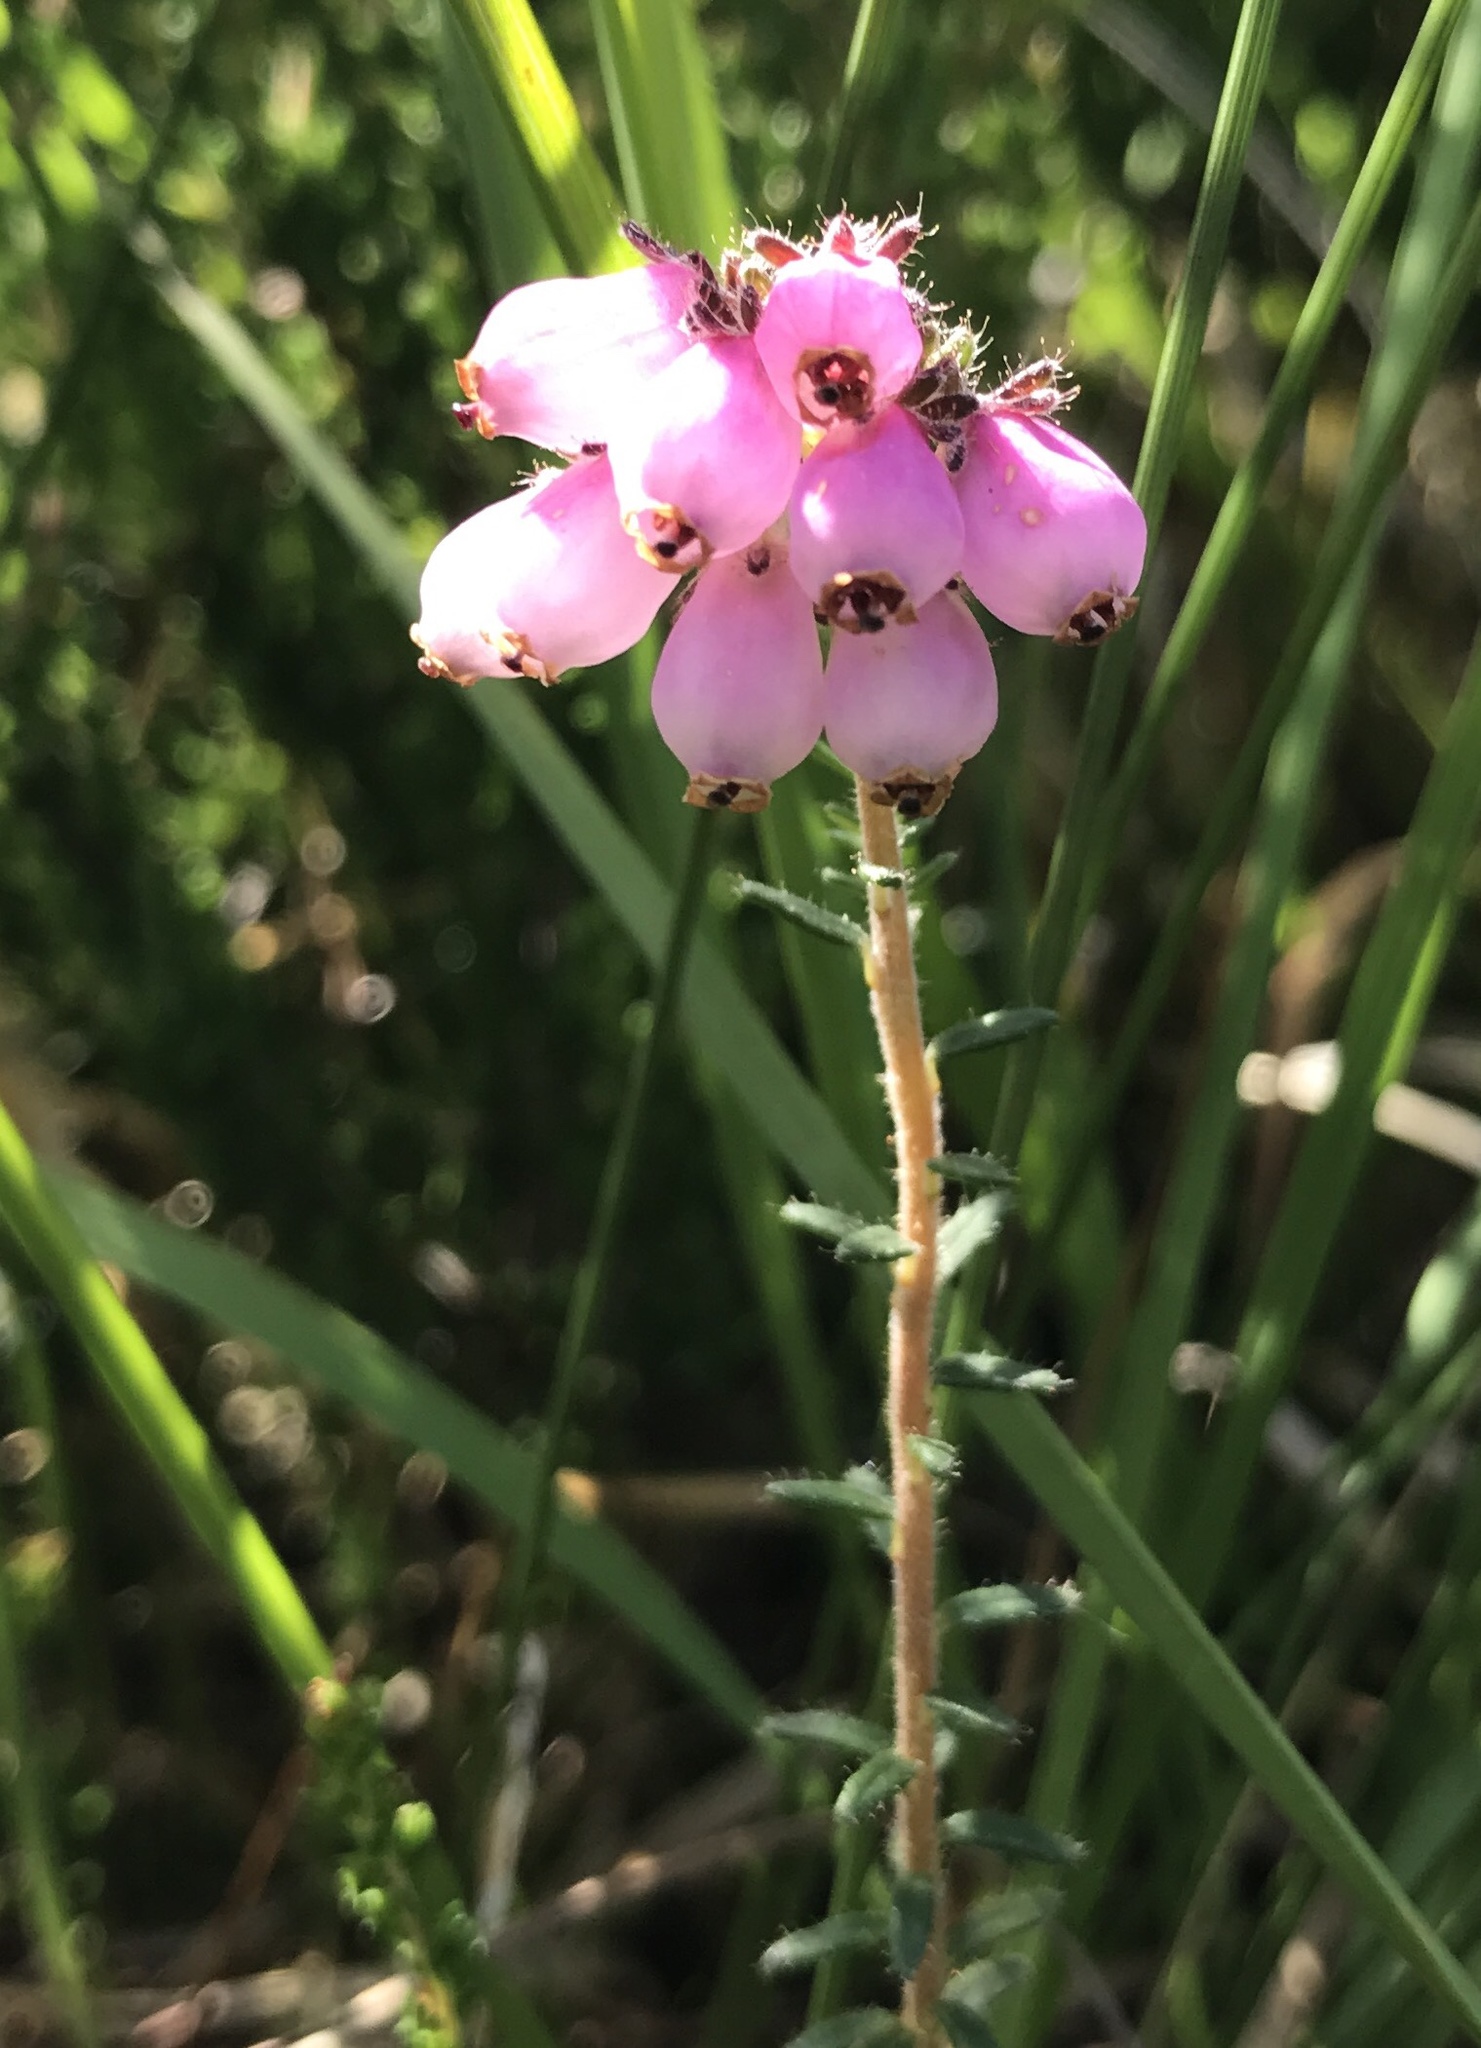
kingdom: Plantae
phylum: Tracheophyta
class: Magnoliopsida
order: Ericales
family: Ericaceae
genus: Erica
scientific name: Erica tetralix
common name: Cross-leaved heath
